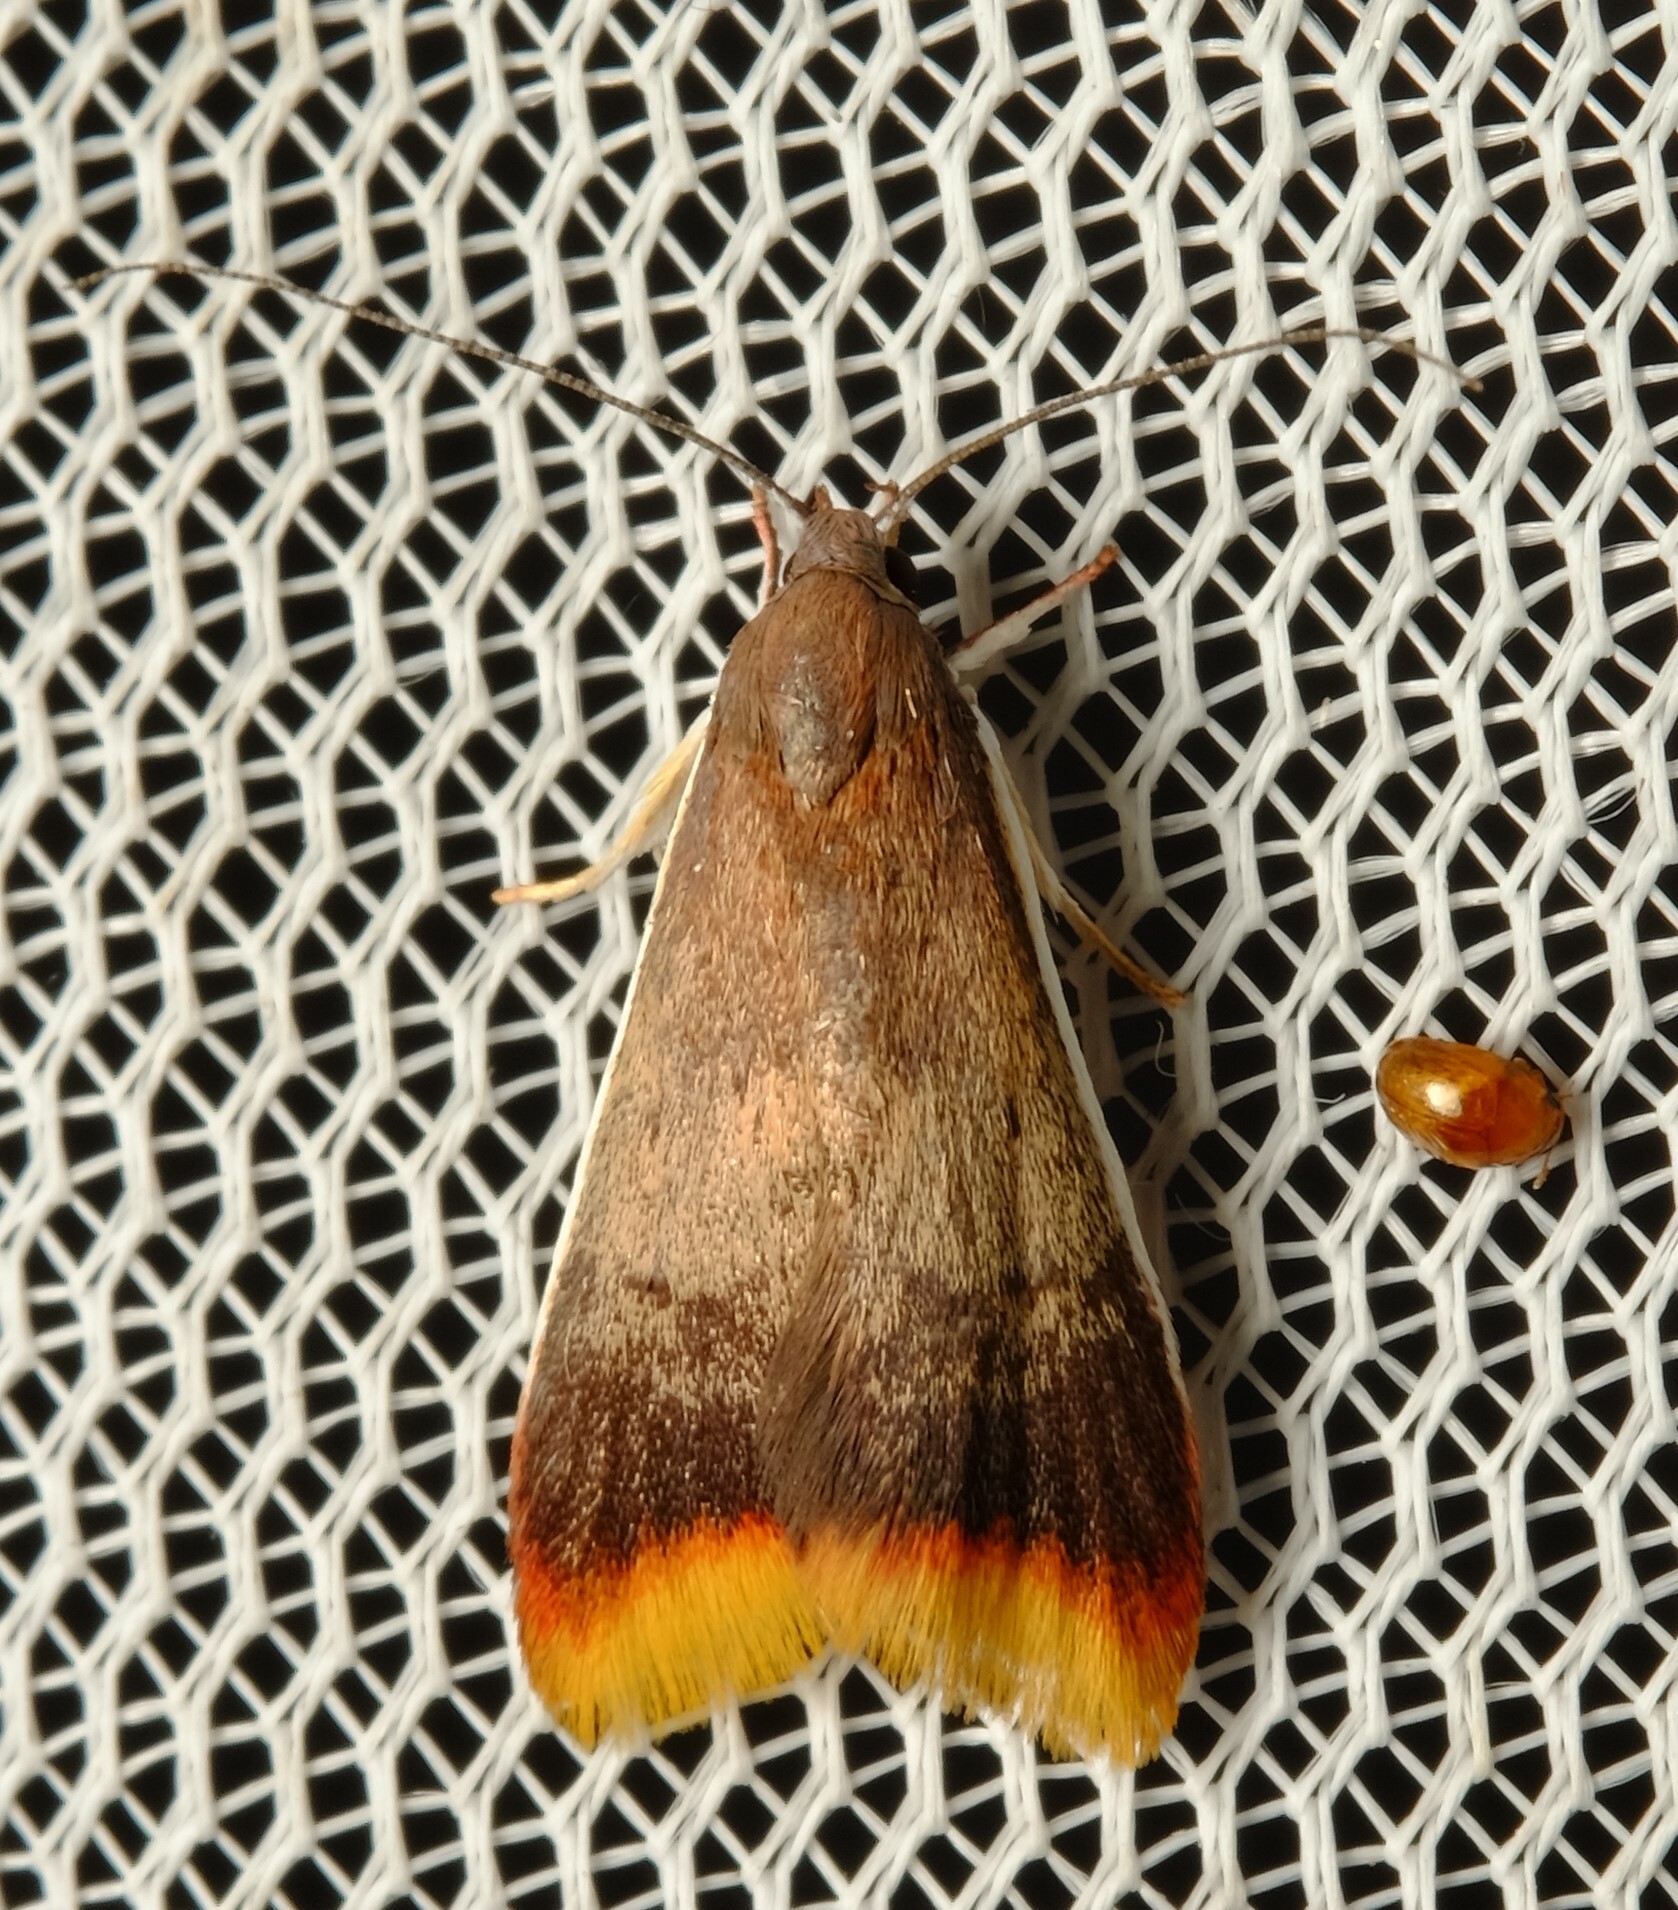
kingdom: Animalia
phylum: Arthropoda
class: Insecta
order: Lepidoptera
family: Oecophoridae
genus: Hemibela
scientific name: Hemibela callista
